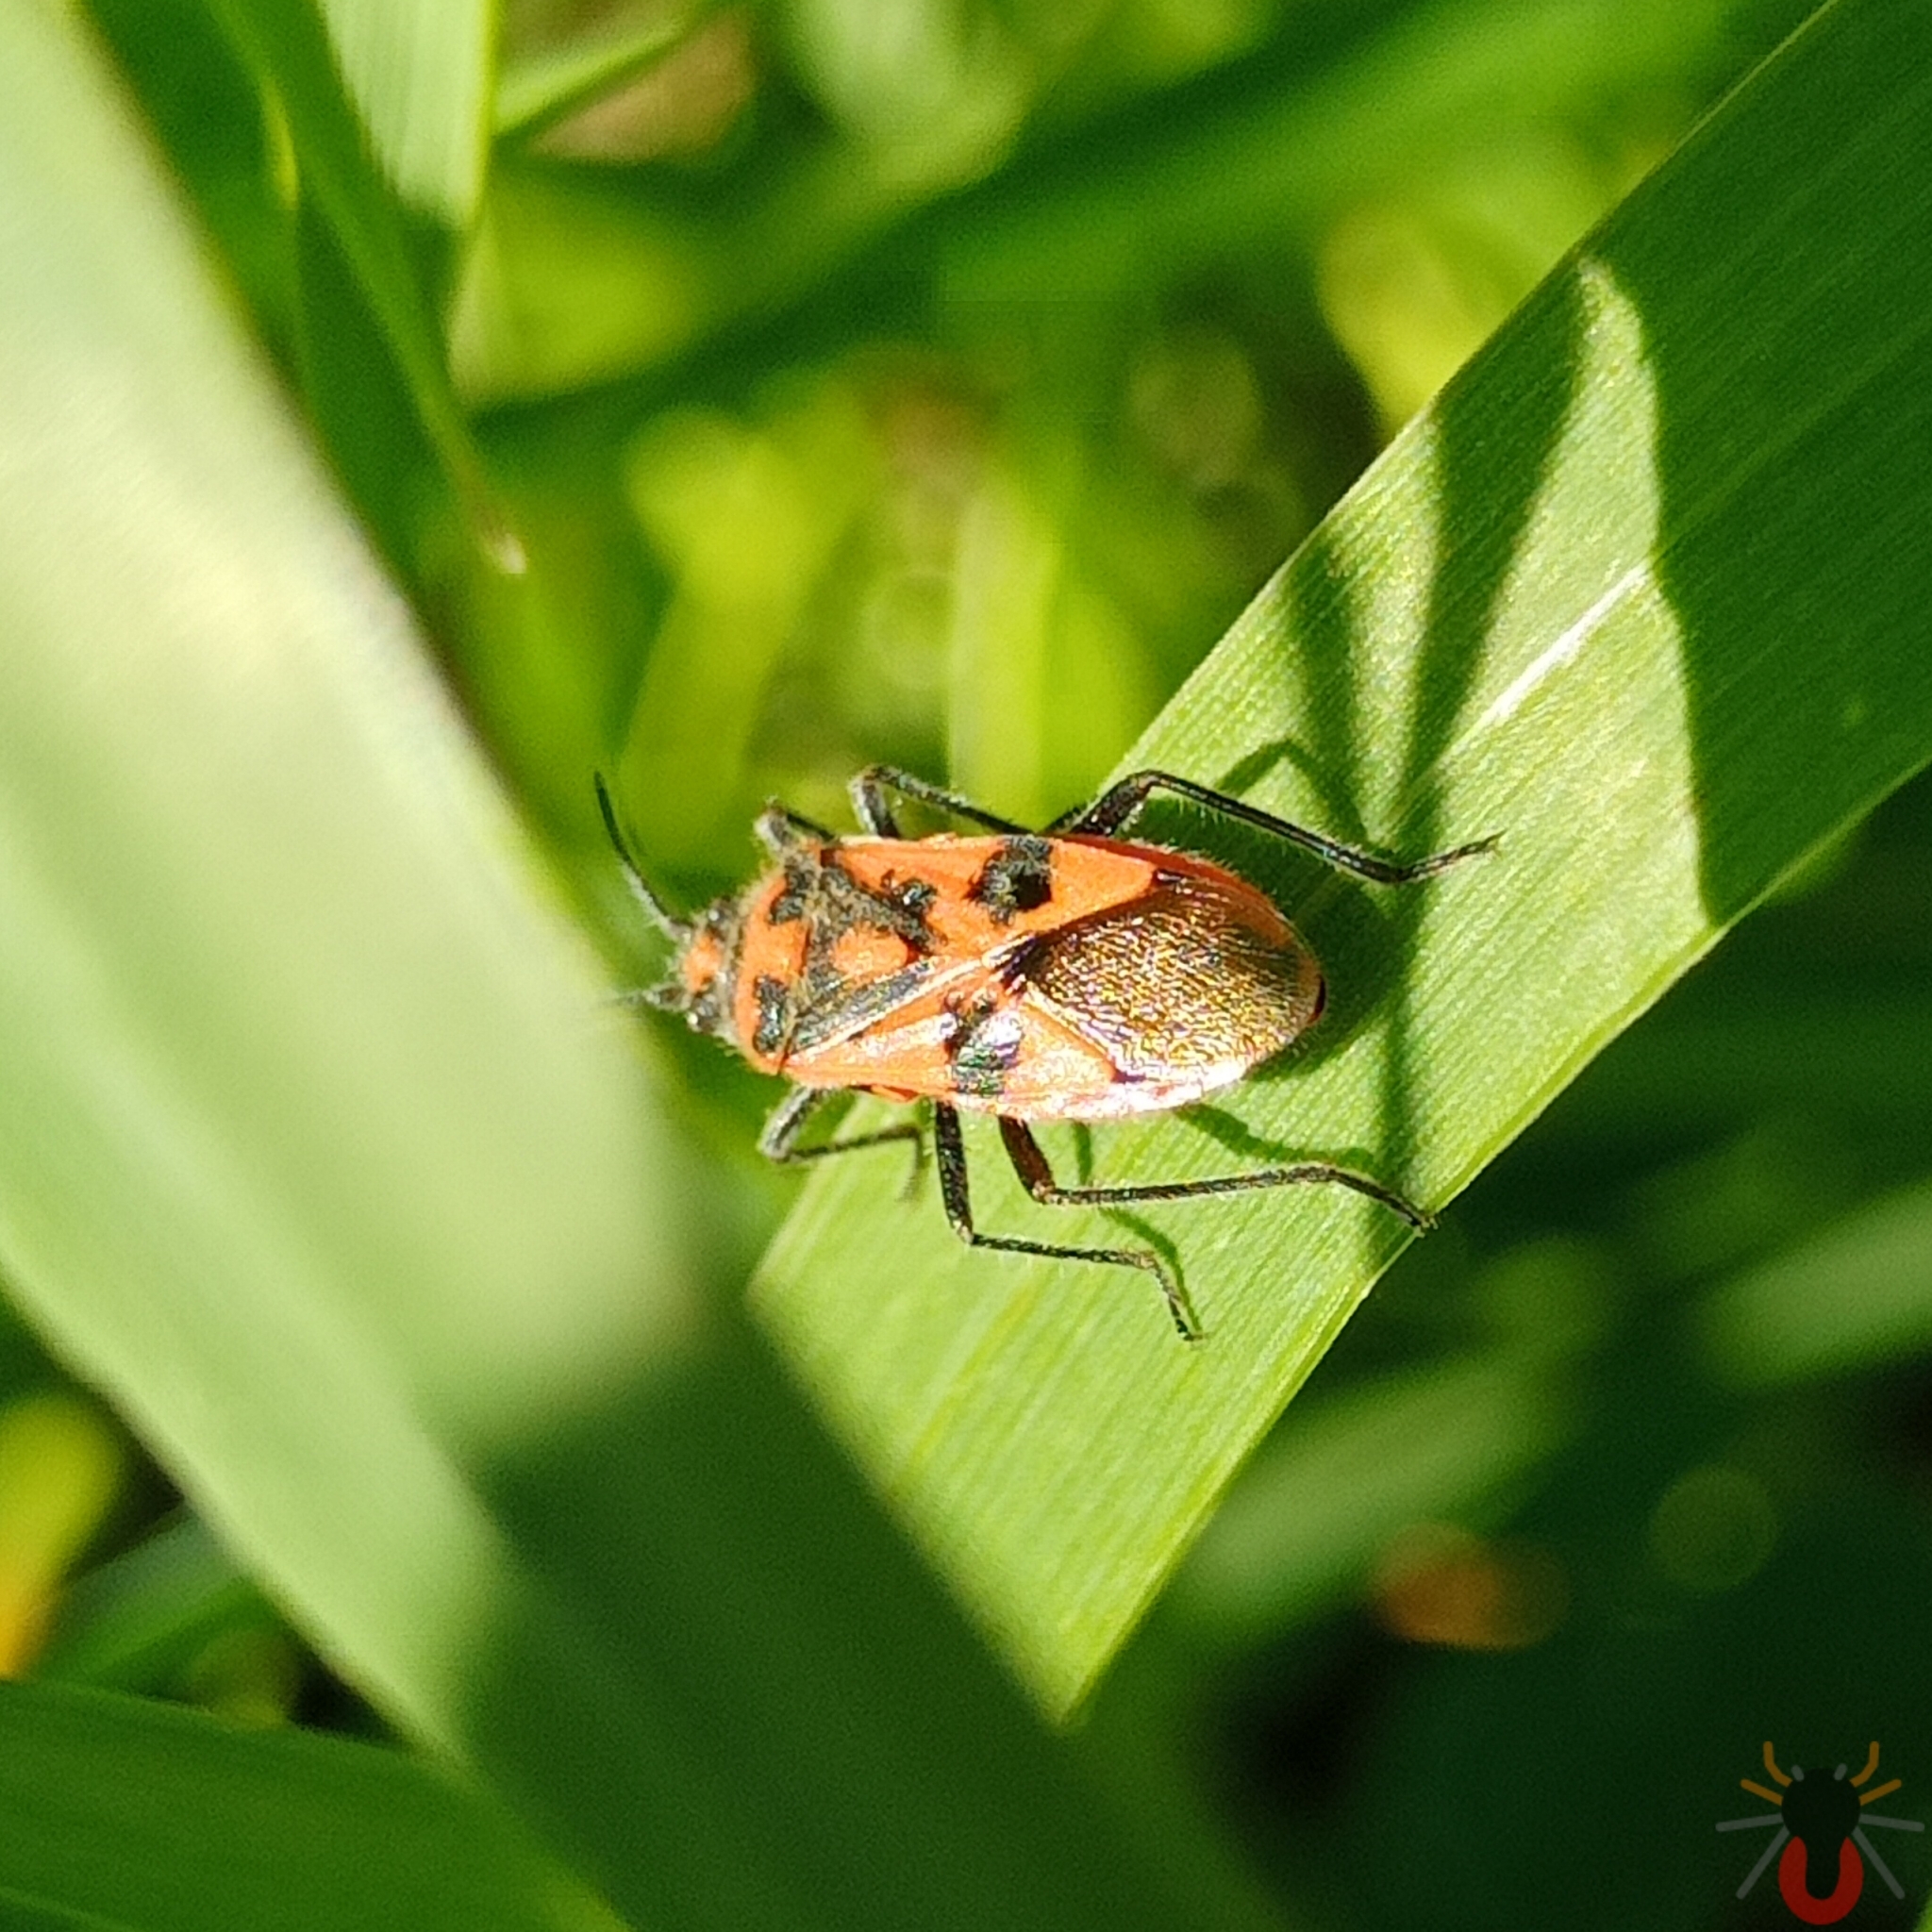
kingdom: Animalia
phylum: Arthropoda
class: Insecta
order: Hemiptera
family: Rhopalidae
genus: Corizus
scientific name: Corizus hyoscyami
